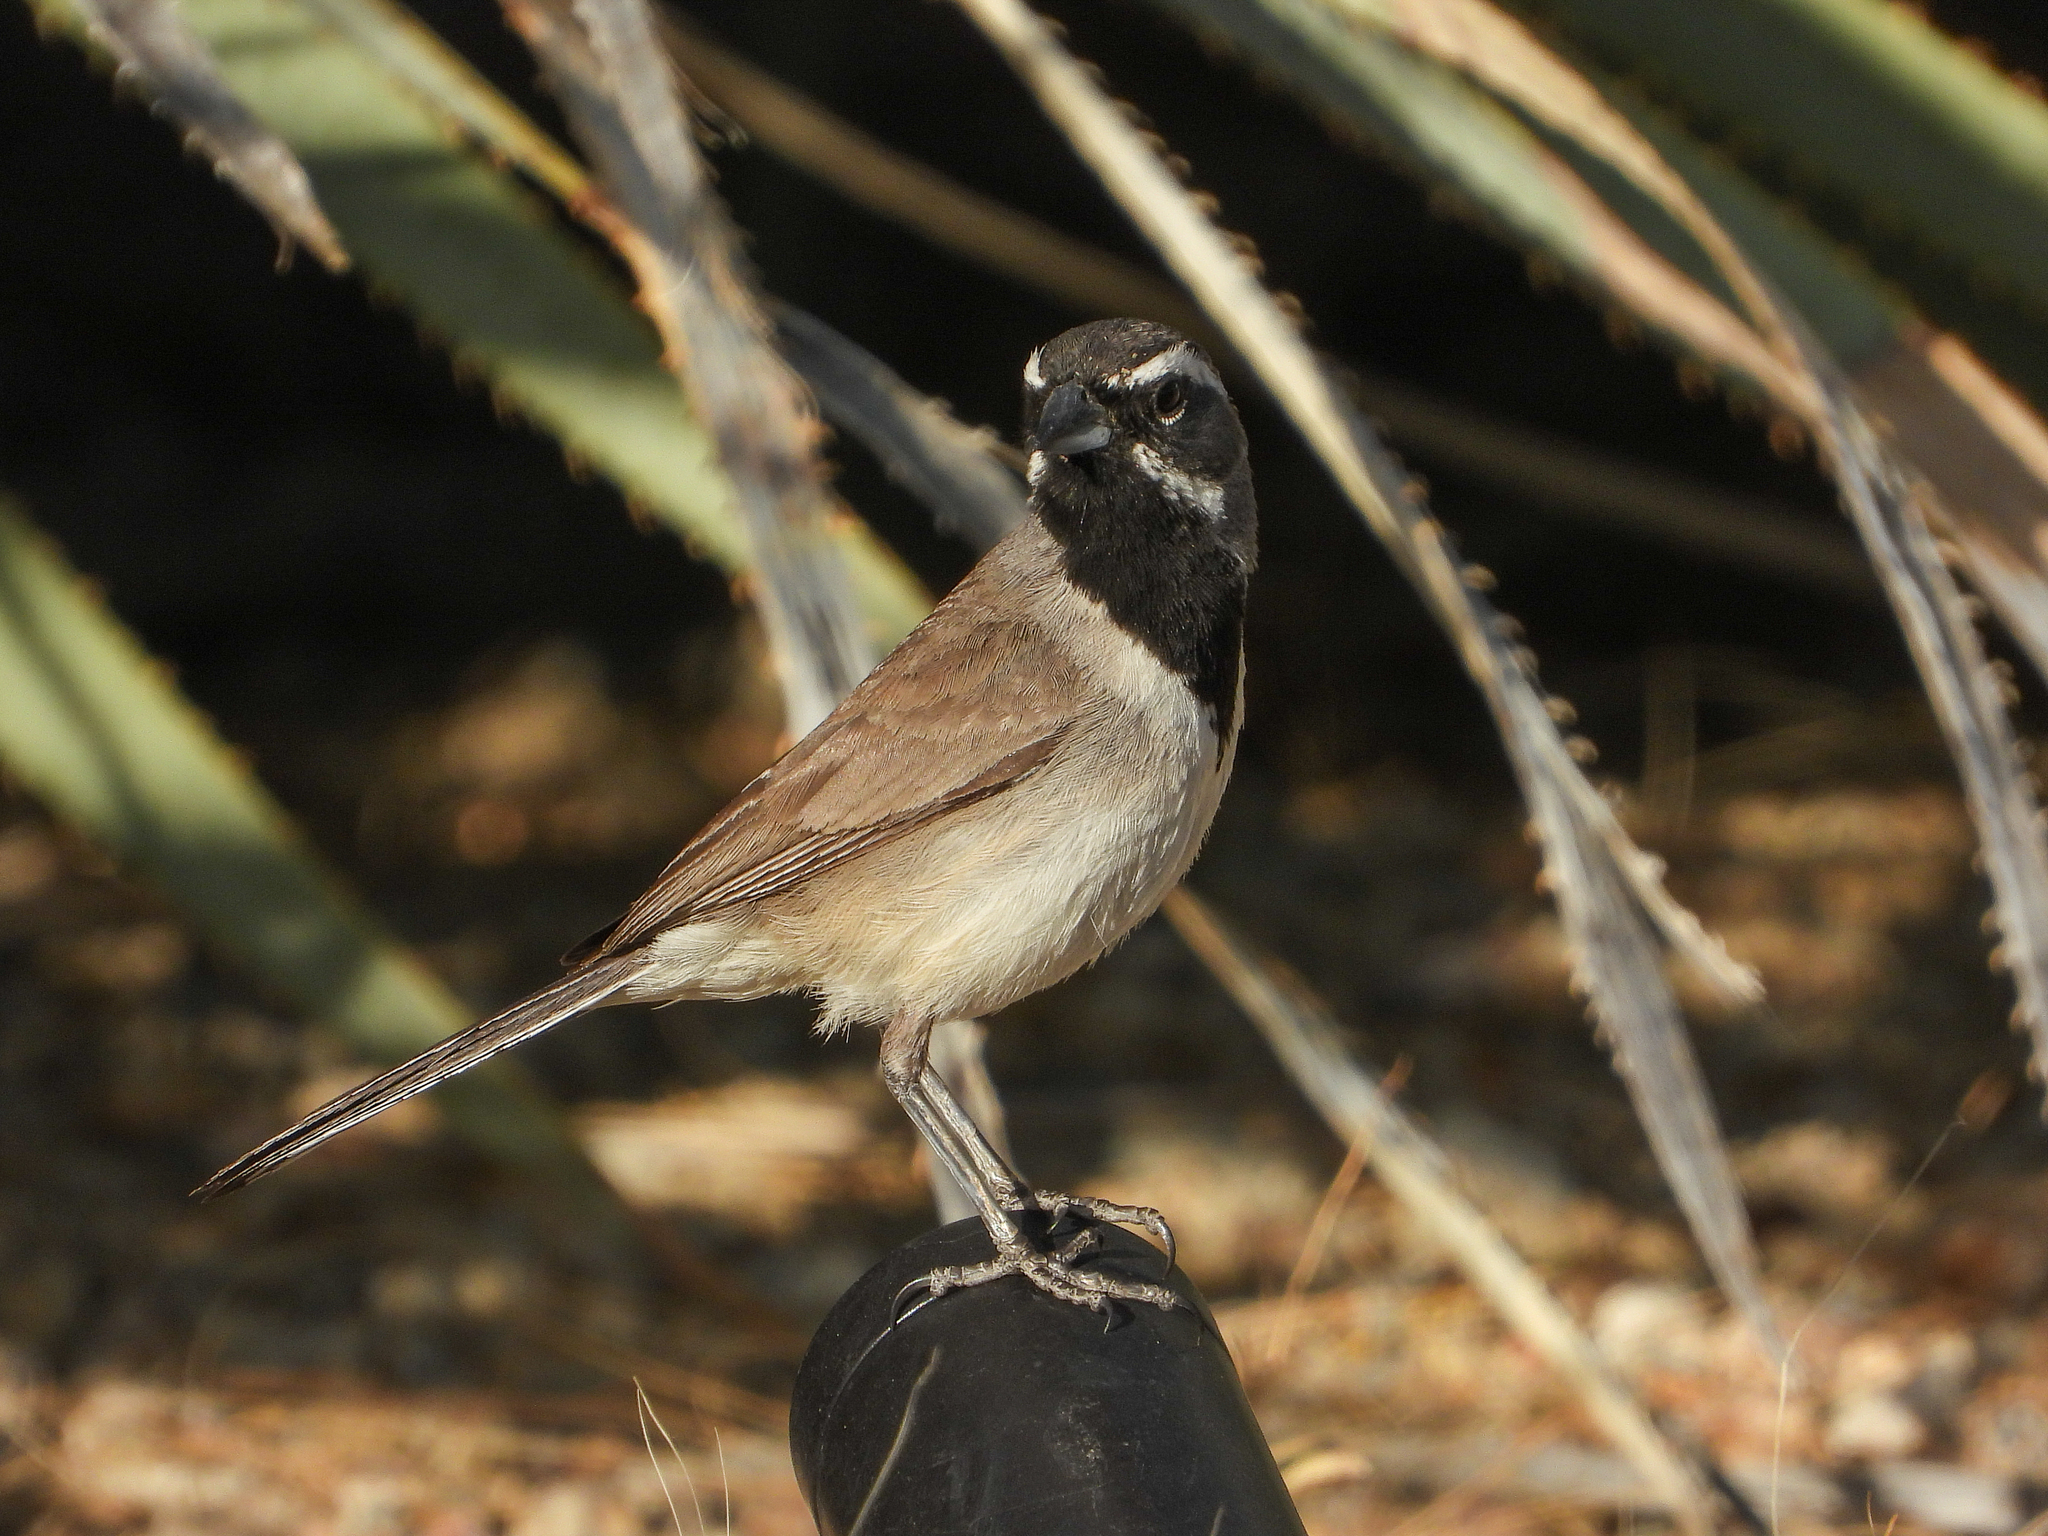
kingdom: Animalia
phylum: Chordata
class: Aves
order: Passeriformes
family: Passerellidae
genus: Amphispiza
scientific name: Amphispiza bilineata
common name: Black-throated sparrow
